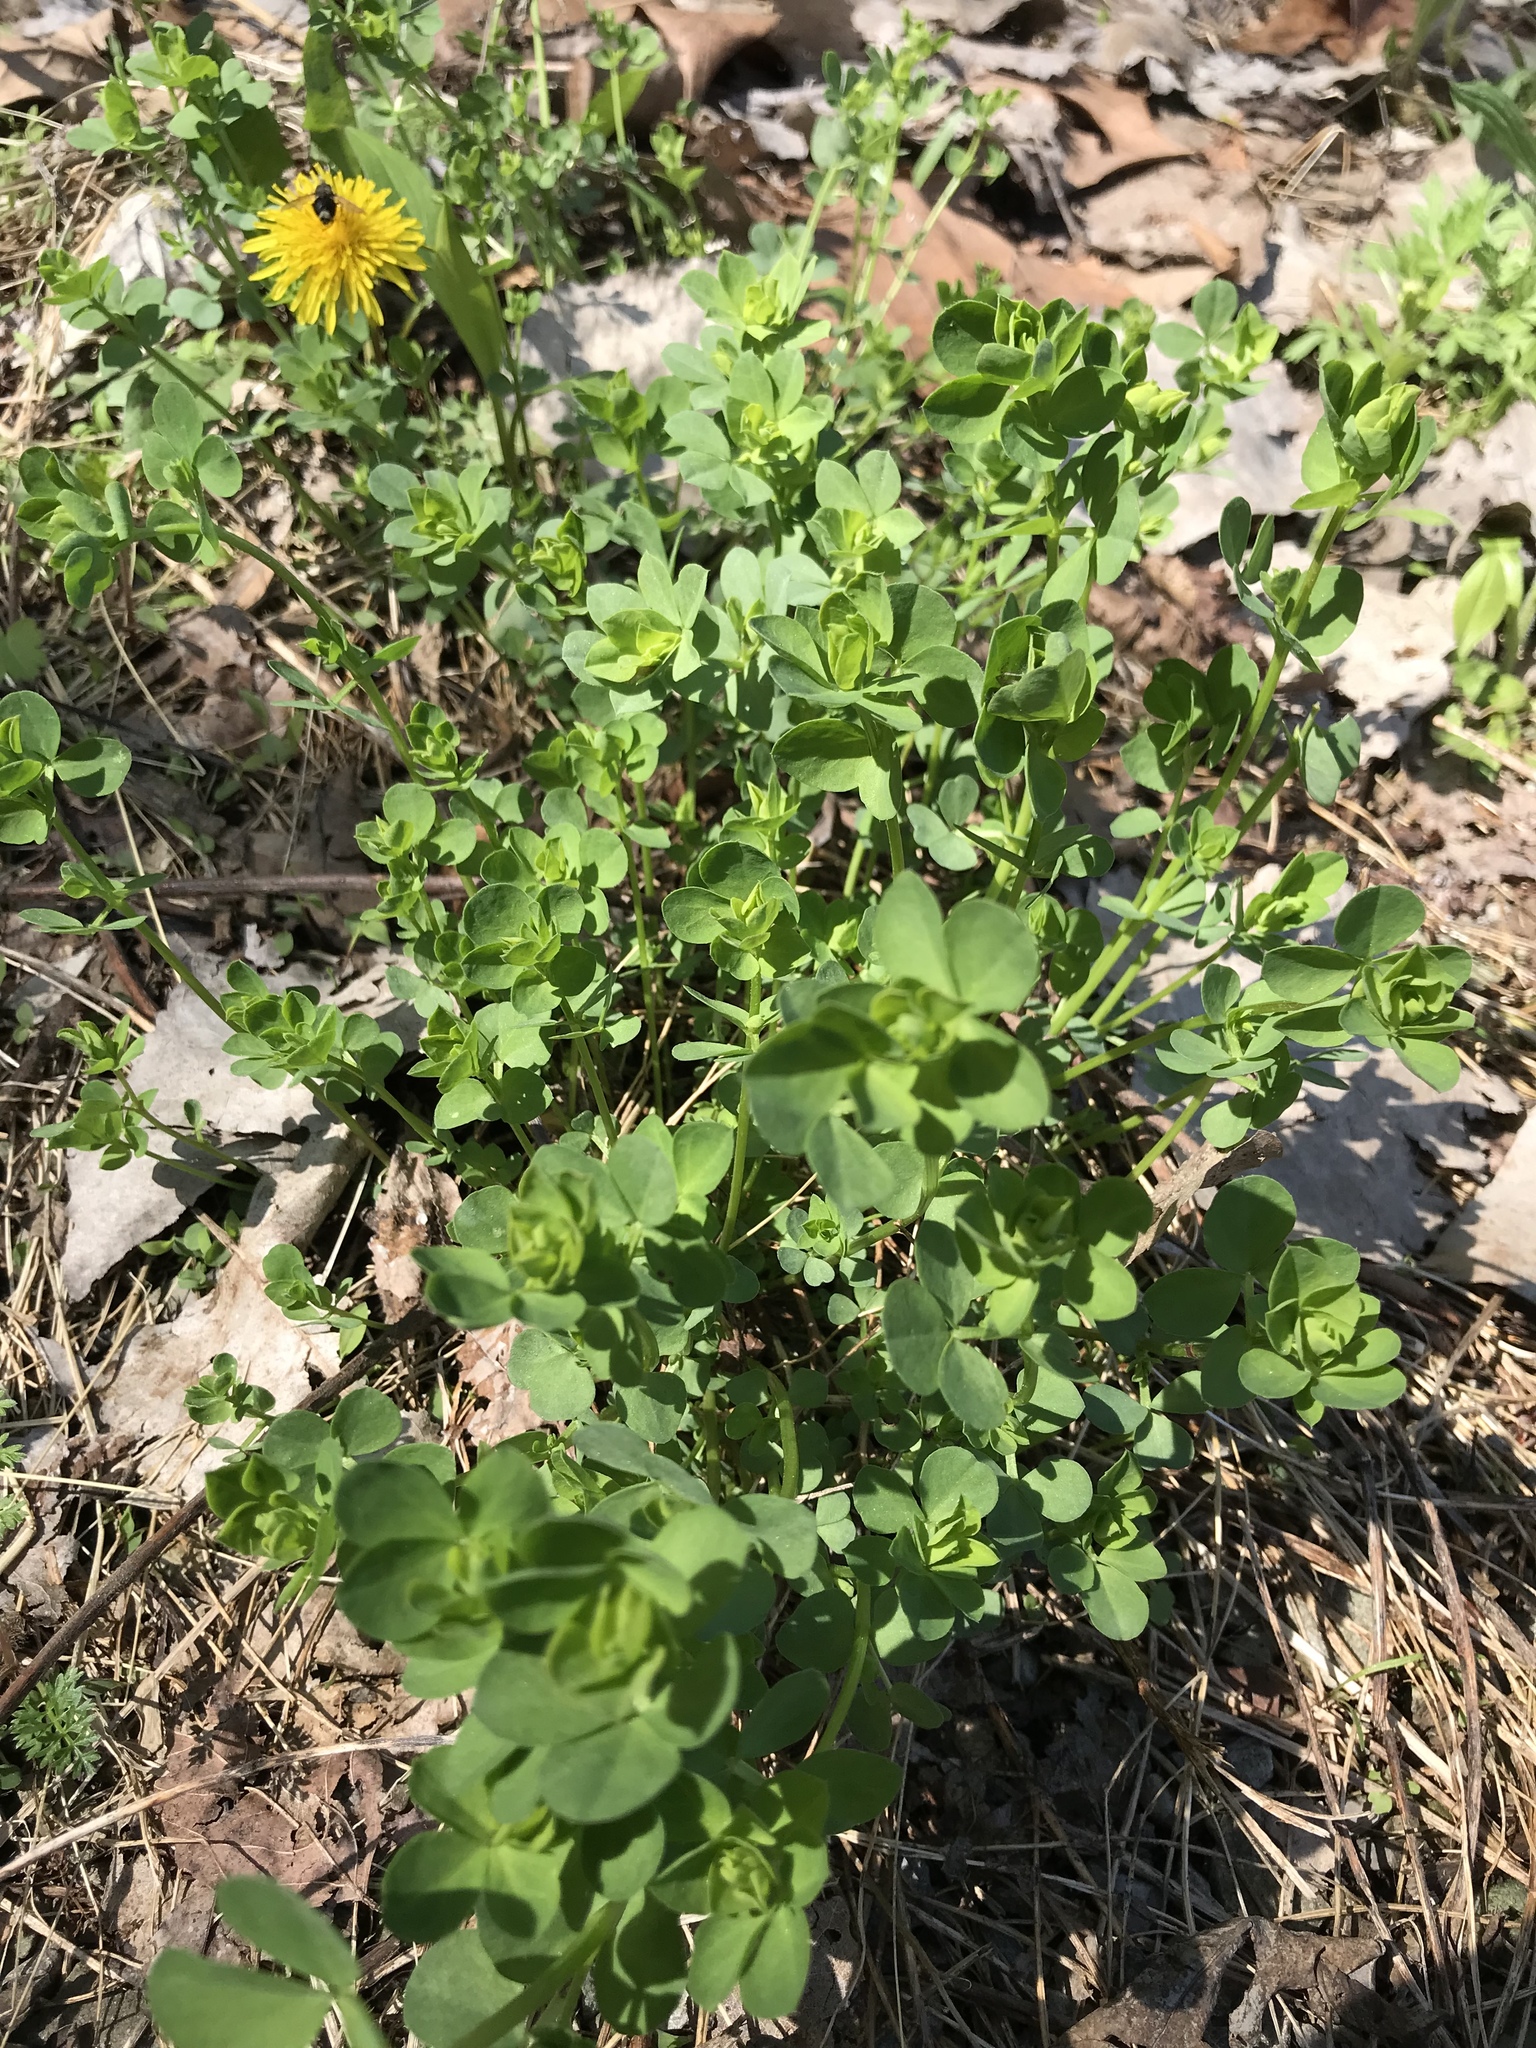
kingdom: Plantae
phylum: Tracheophyta
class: Magnoliopsida
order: Fabales
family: Fabaceae
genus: Lotus
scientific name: Lotus corniculatus
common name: Common bird's-foot-trefoil
